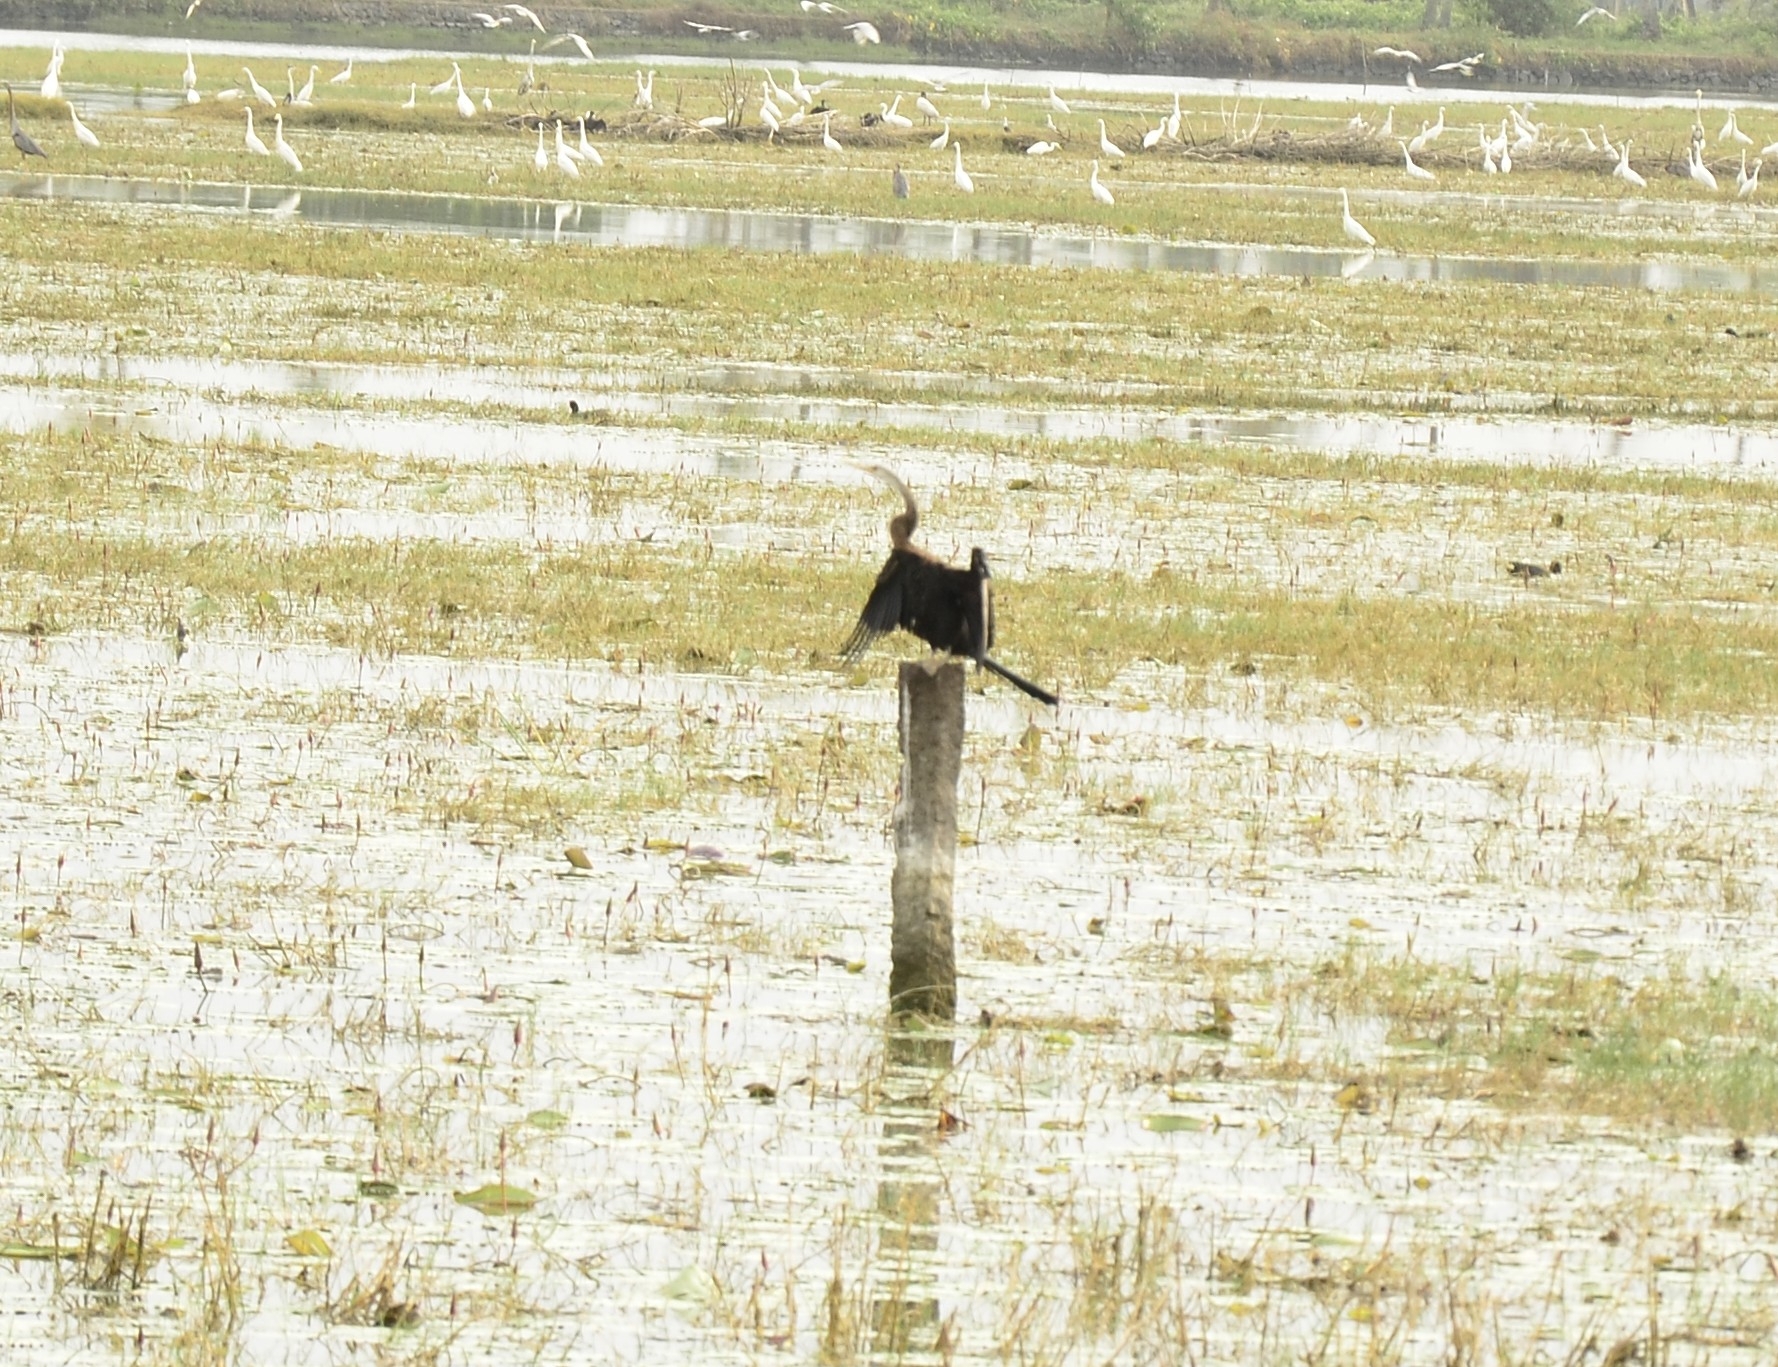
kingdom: Animalia
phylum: Chordata
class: Aves
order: Suliformes
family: Anhingidae
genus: Anhinga
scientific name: Anhinga melanogaster
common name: Oriental darter
